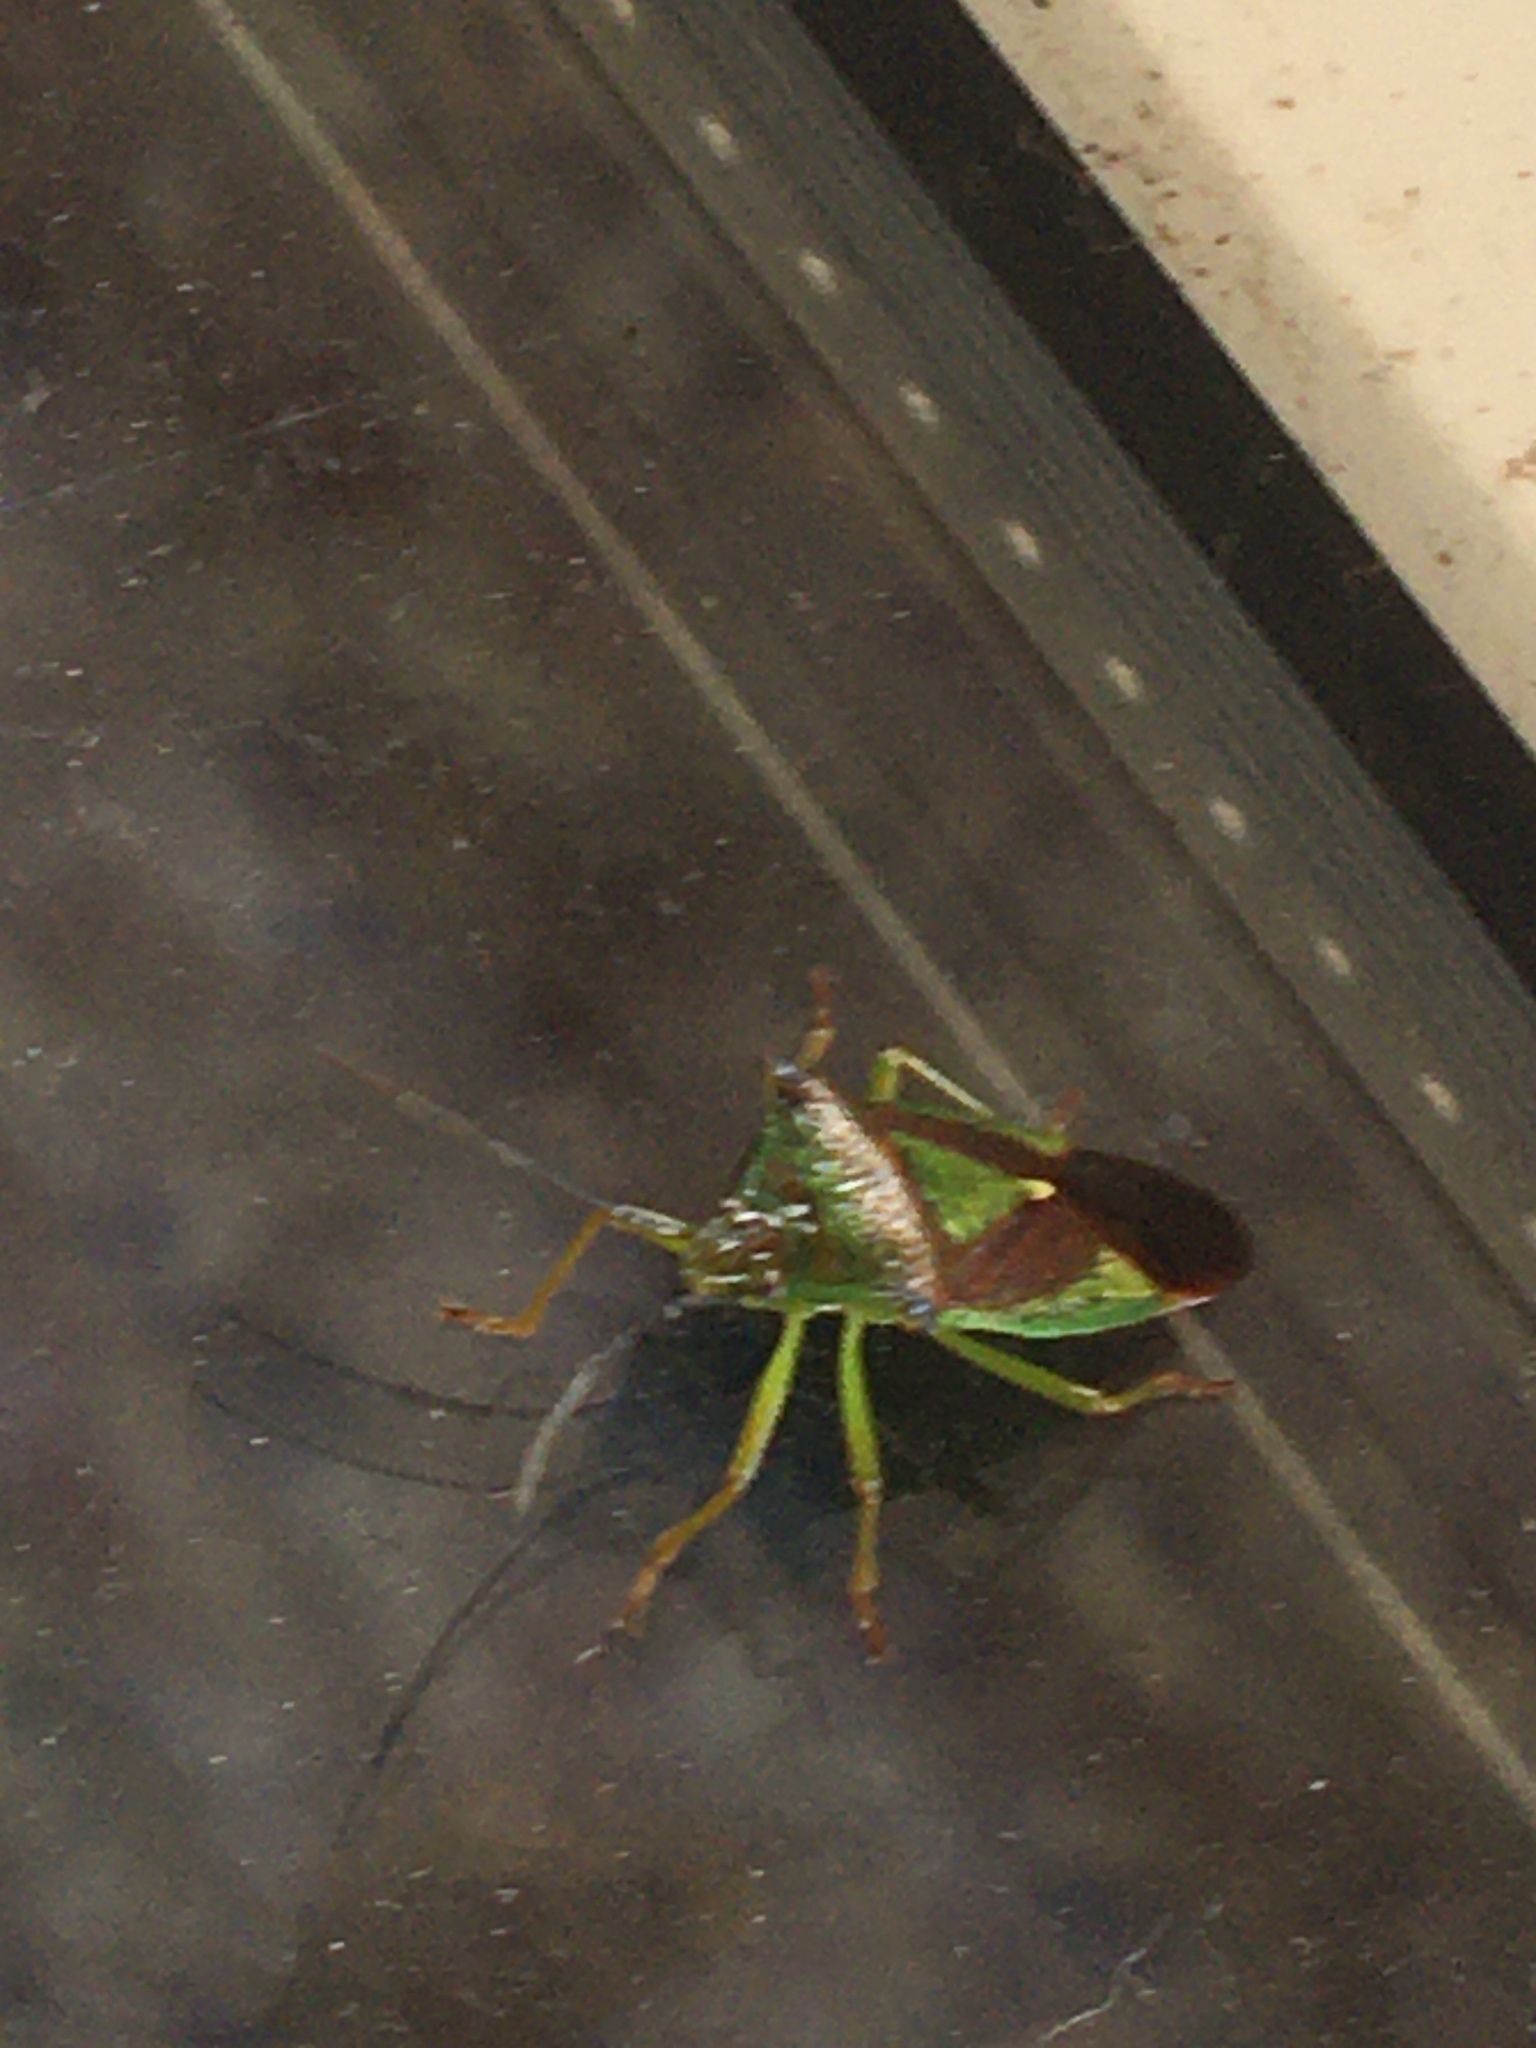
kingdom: Animalia
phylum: Arthropoda
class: Insecta
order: Hemiptera
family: Acanthosomatidae
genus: Acanthosoma
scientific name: Acanthosoma haemorrhoidale
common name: Hawthorn shieldbug
